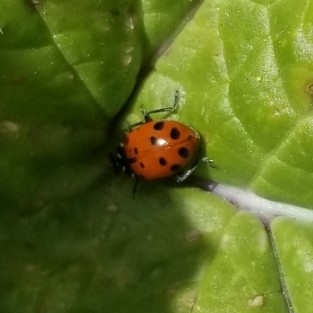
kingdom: Animalia
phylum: Arthropoda
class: Insecta
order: Coleoptera
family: Coccinellidae
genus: Hippodamia
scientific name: Hippodamia convergens
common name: Convergent lady beetle
